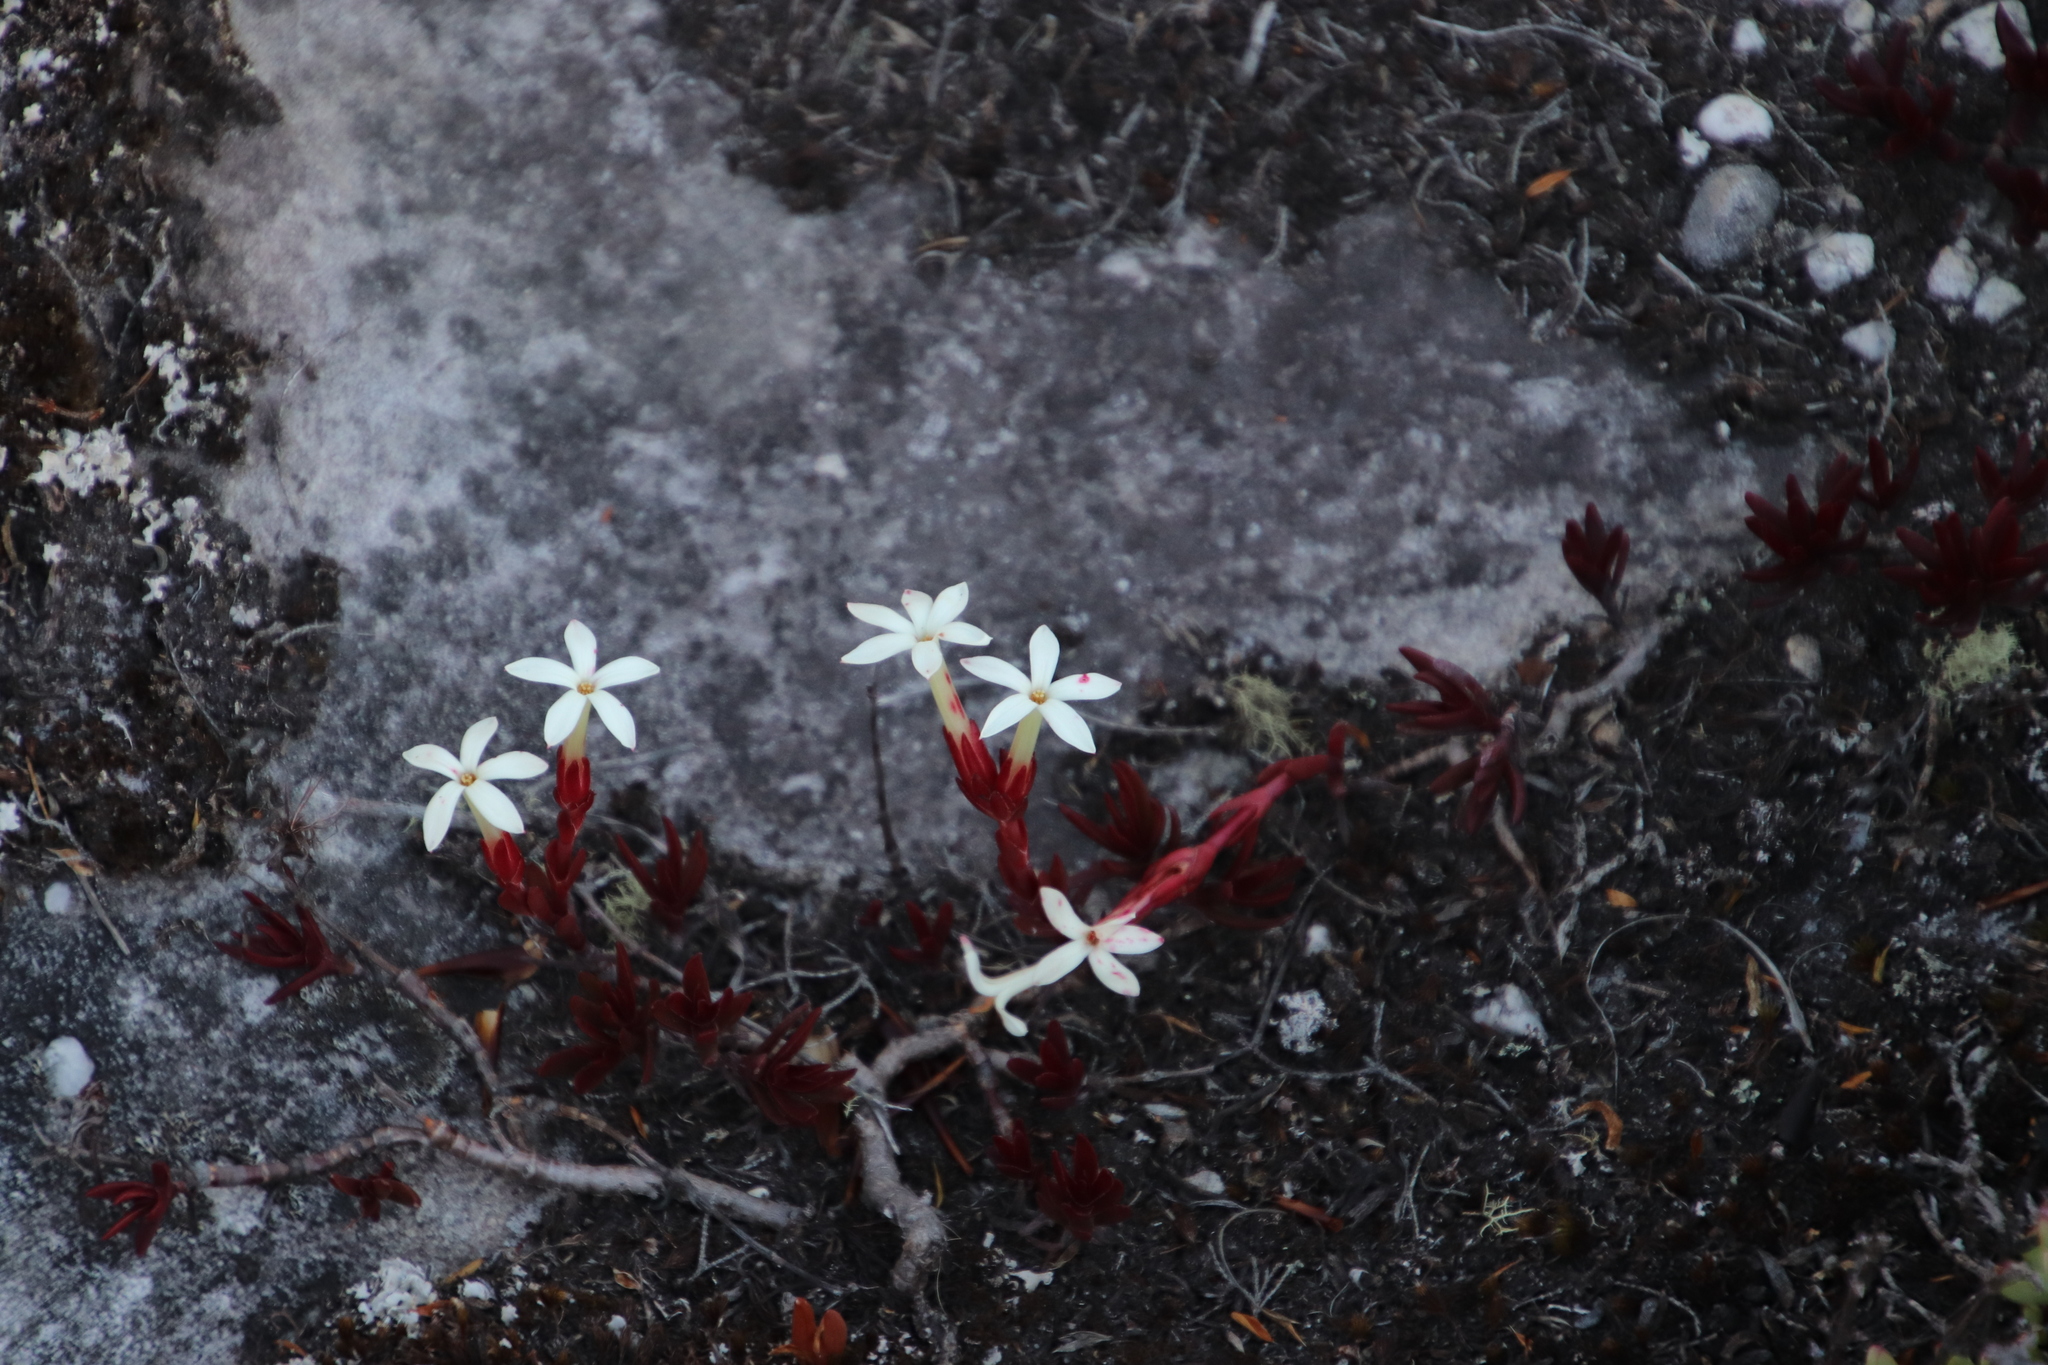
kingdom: Plantae
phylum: Tracheophyta
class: Magnoliopsida
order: Saxifragales
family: Crassulaceae
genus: Crassula
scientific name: Crassula obtusa
